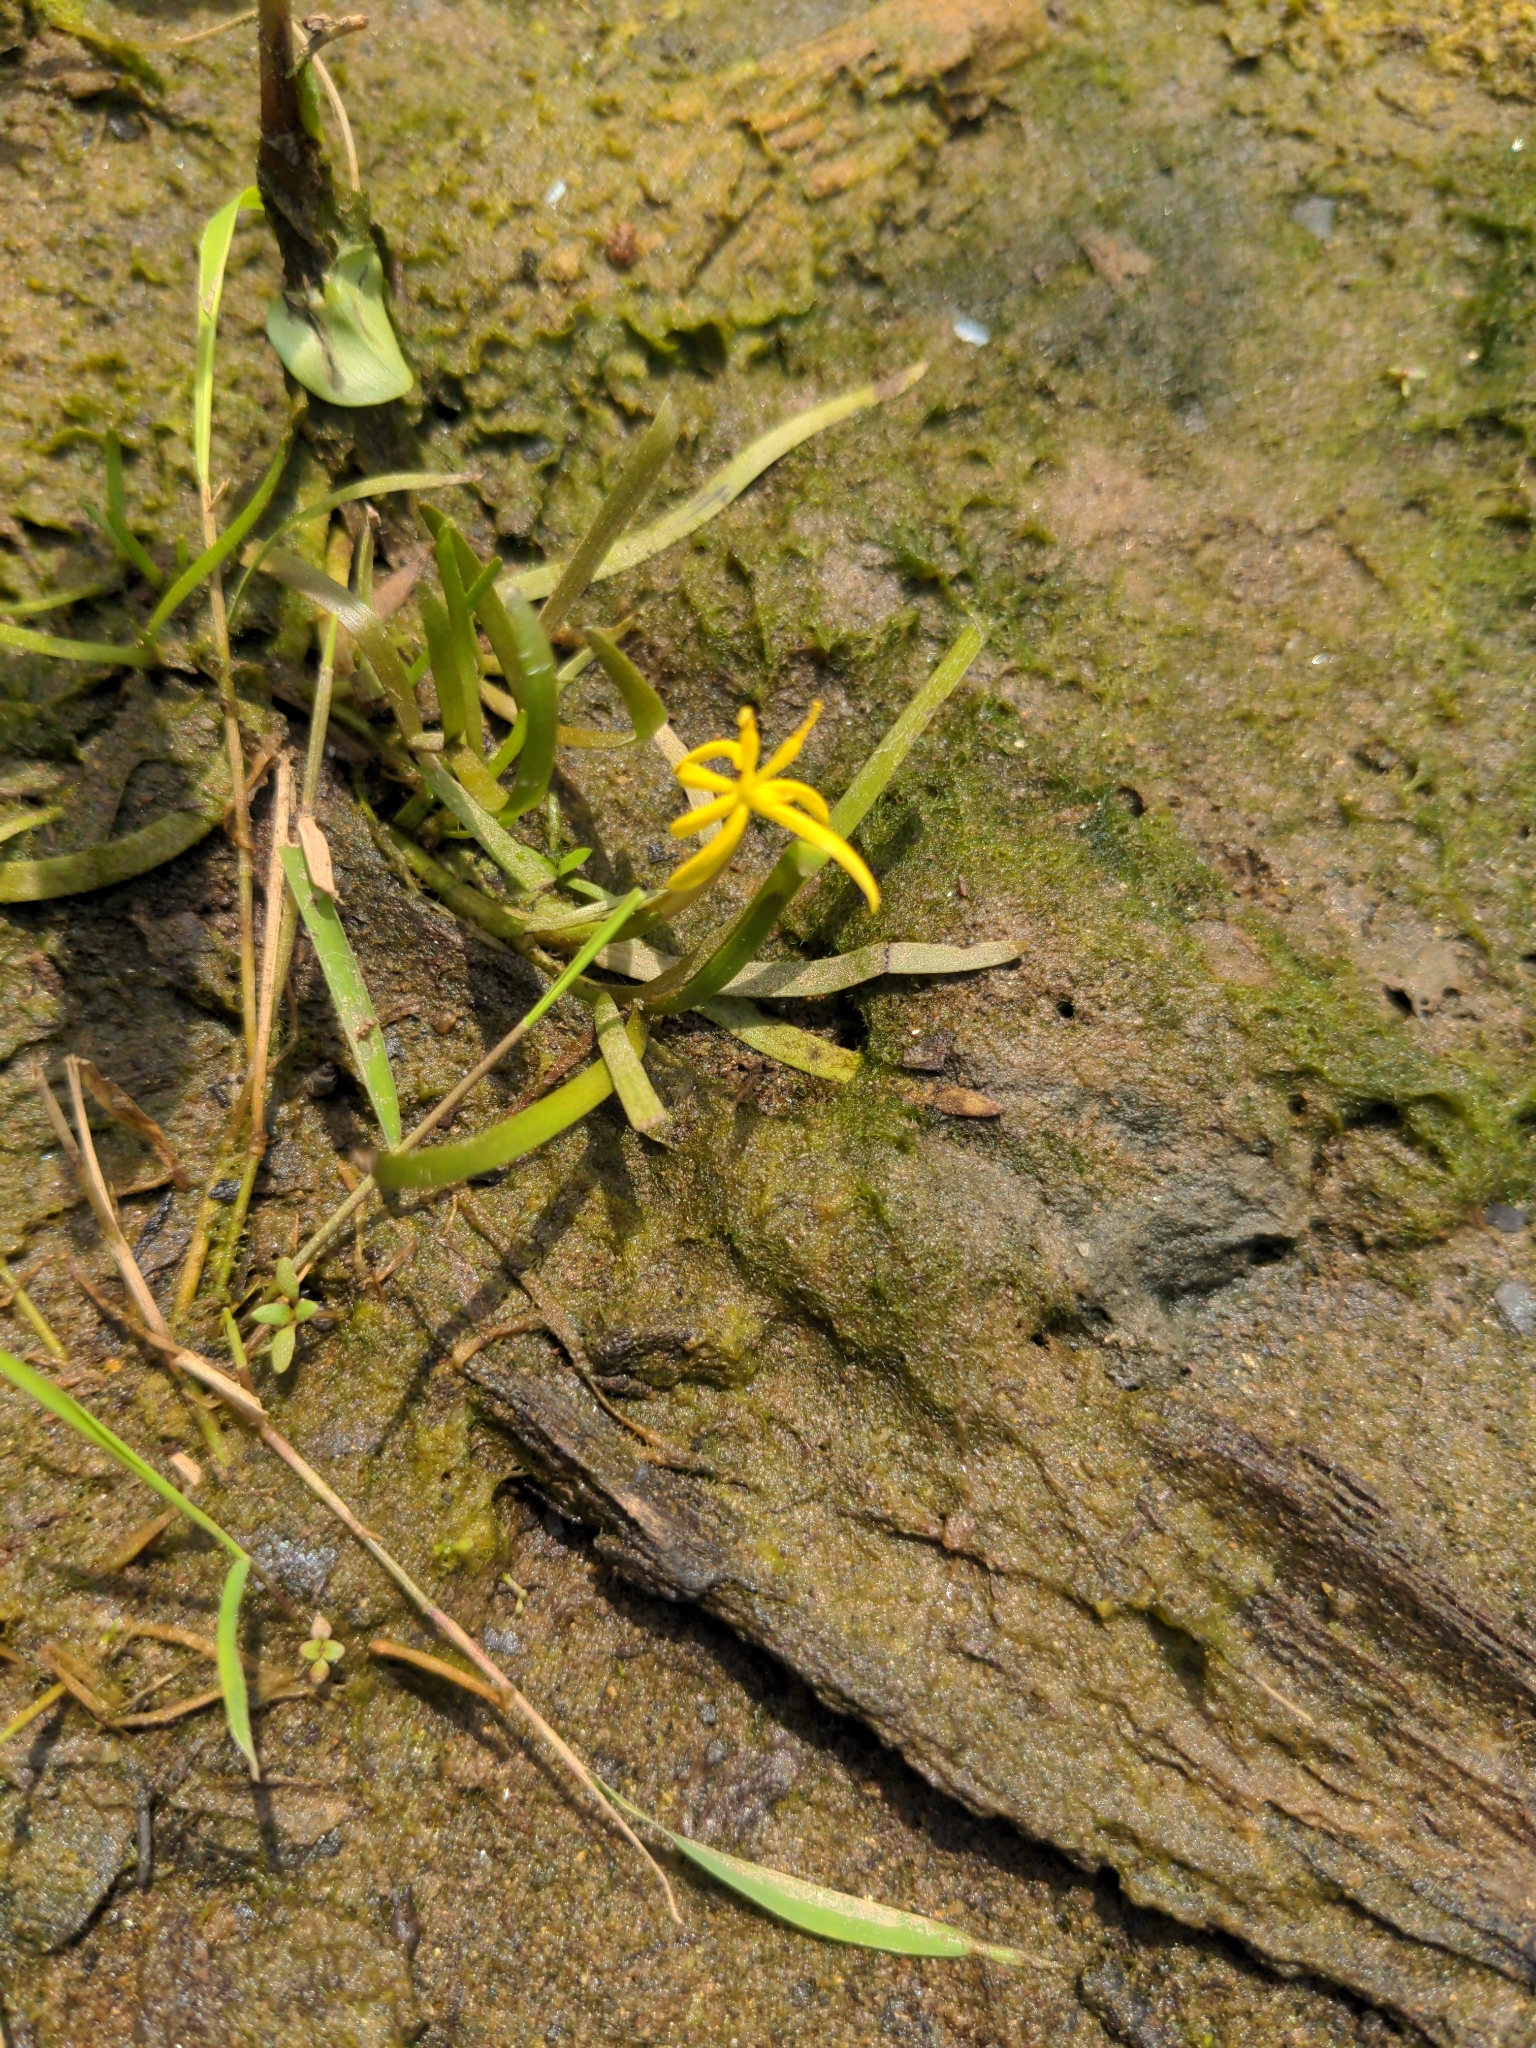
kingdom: Plantae
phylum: Tracheophyta
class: Liliopsida
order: Commelinales
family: Pontederiaceae
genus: Heteranthera
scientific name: Heteranthera dubia
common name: Grass-leaved mud plantain
